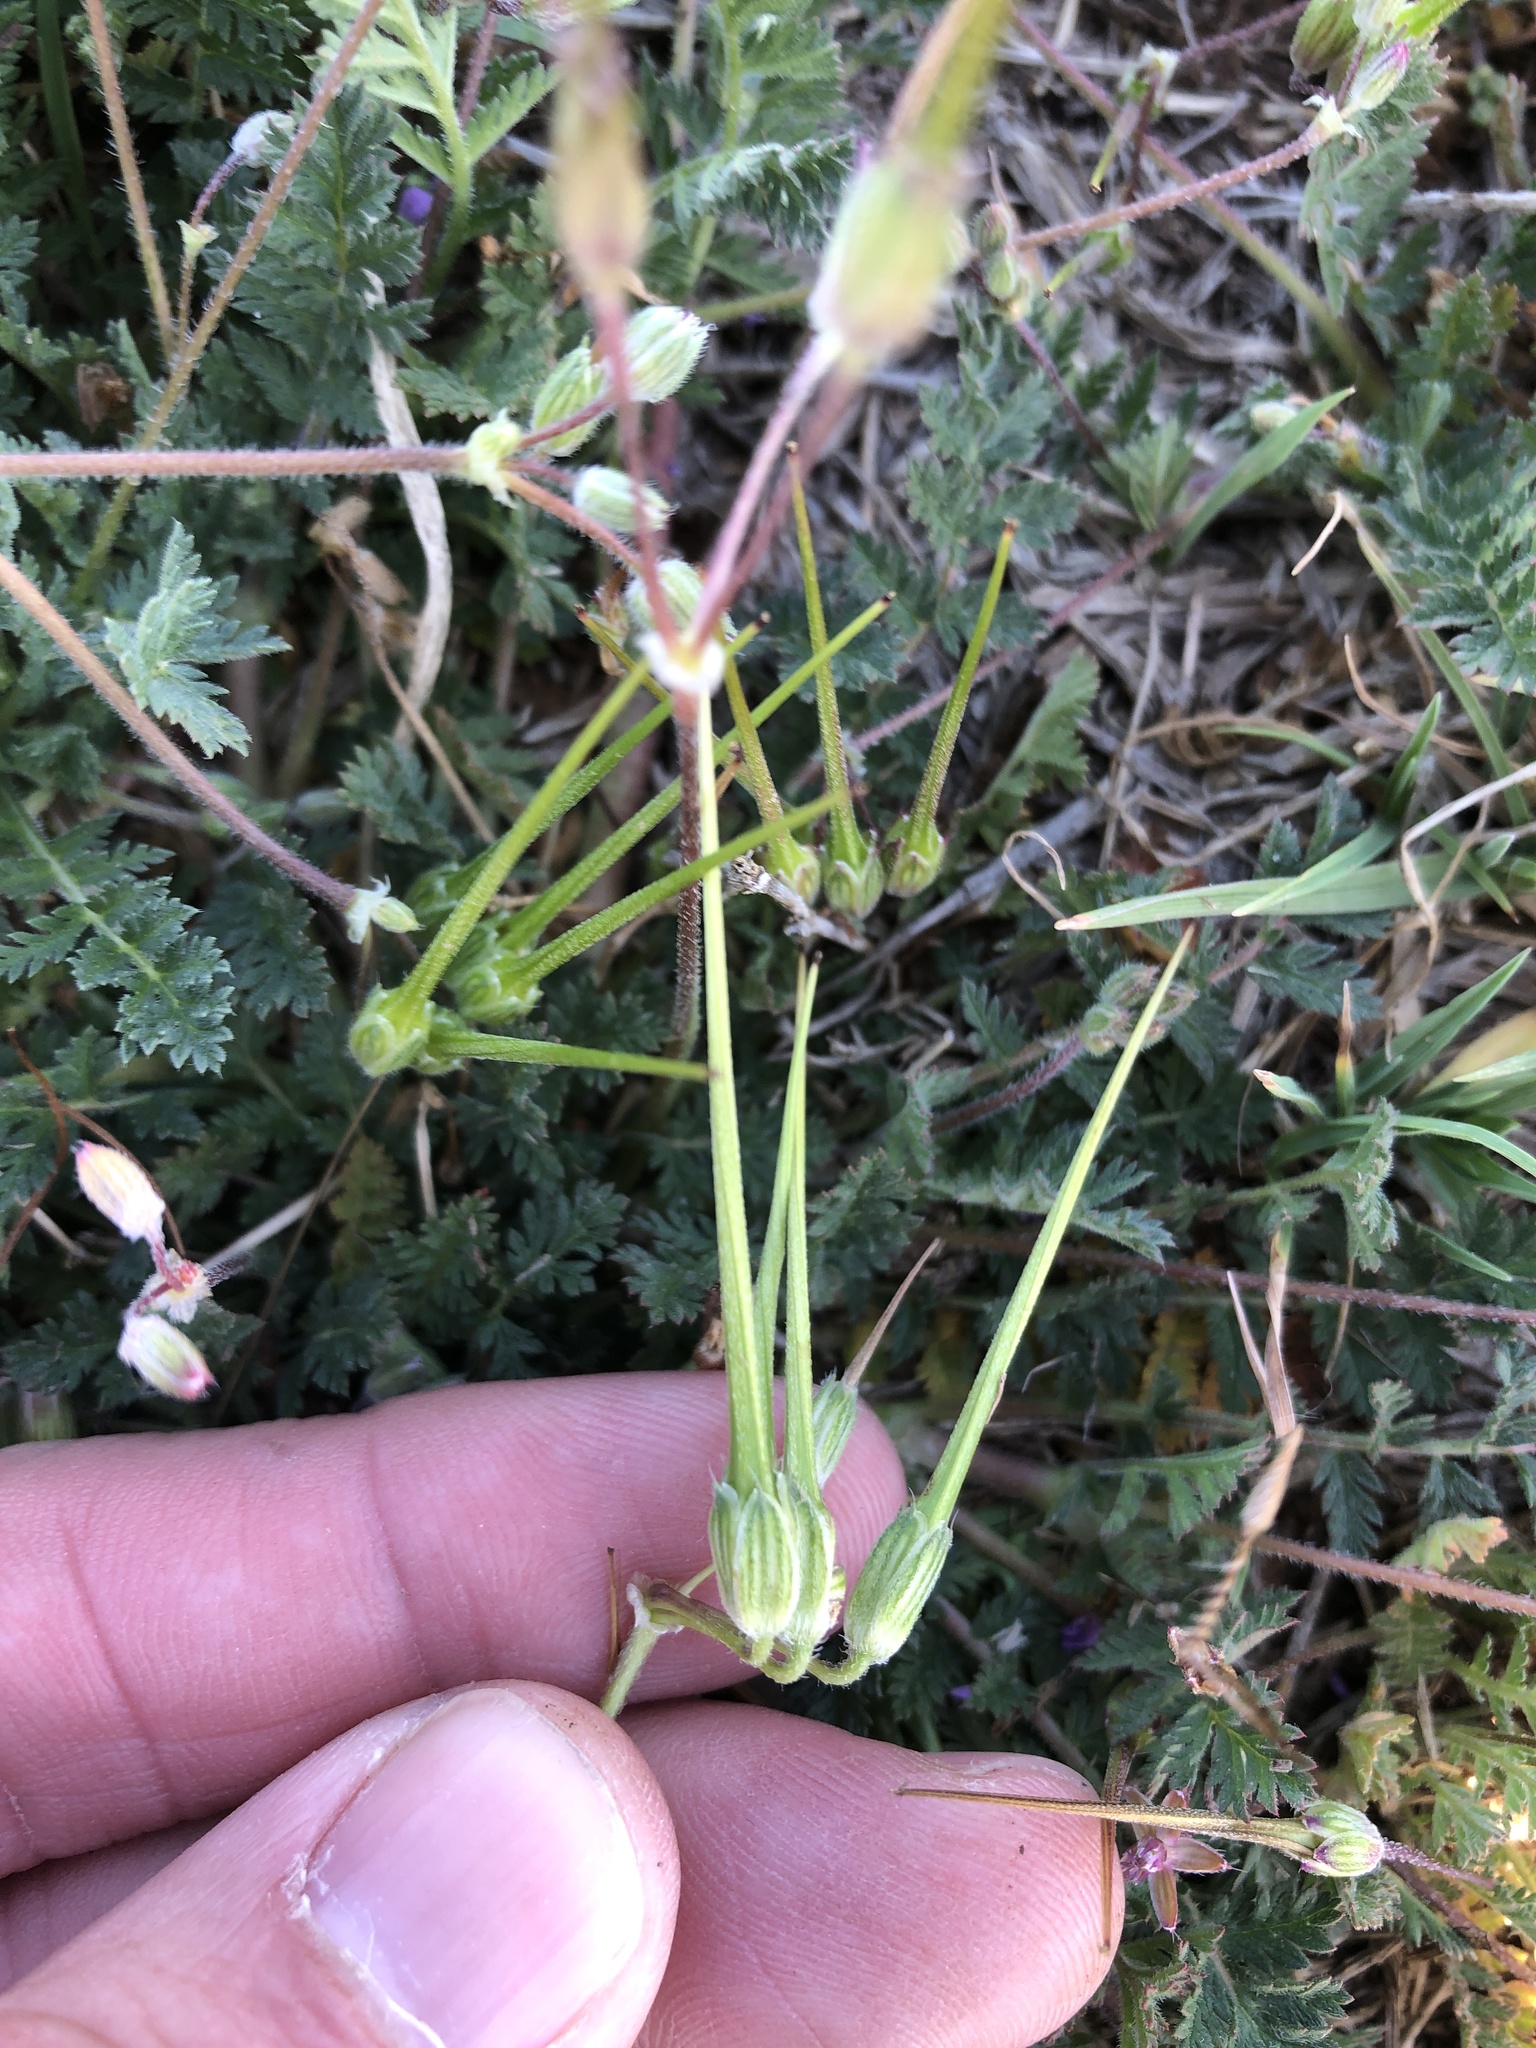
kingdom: Plantae
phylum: Tracheophyta
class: Magnoliopsida
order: Geraniales
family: Geraniaceae
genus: Erodium
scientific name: Erodium cicutarium
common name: Common stork's-bill
